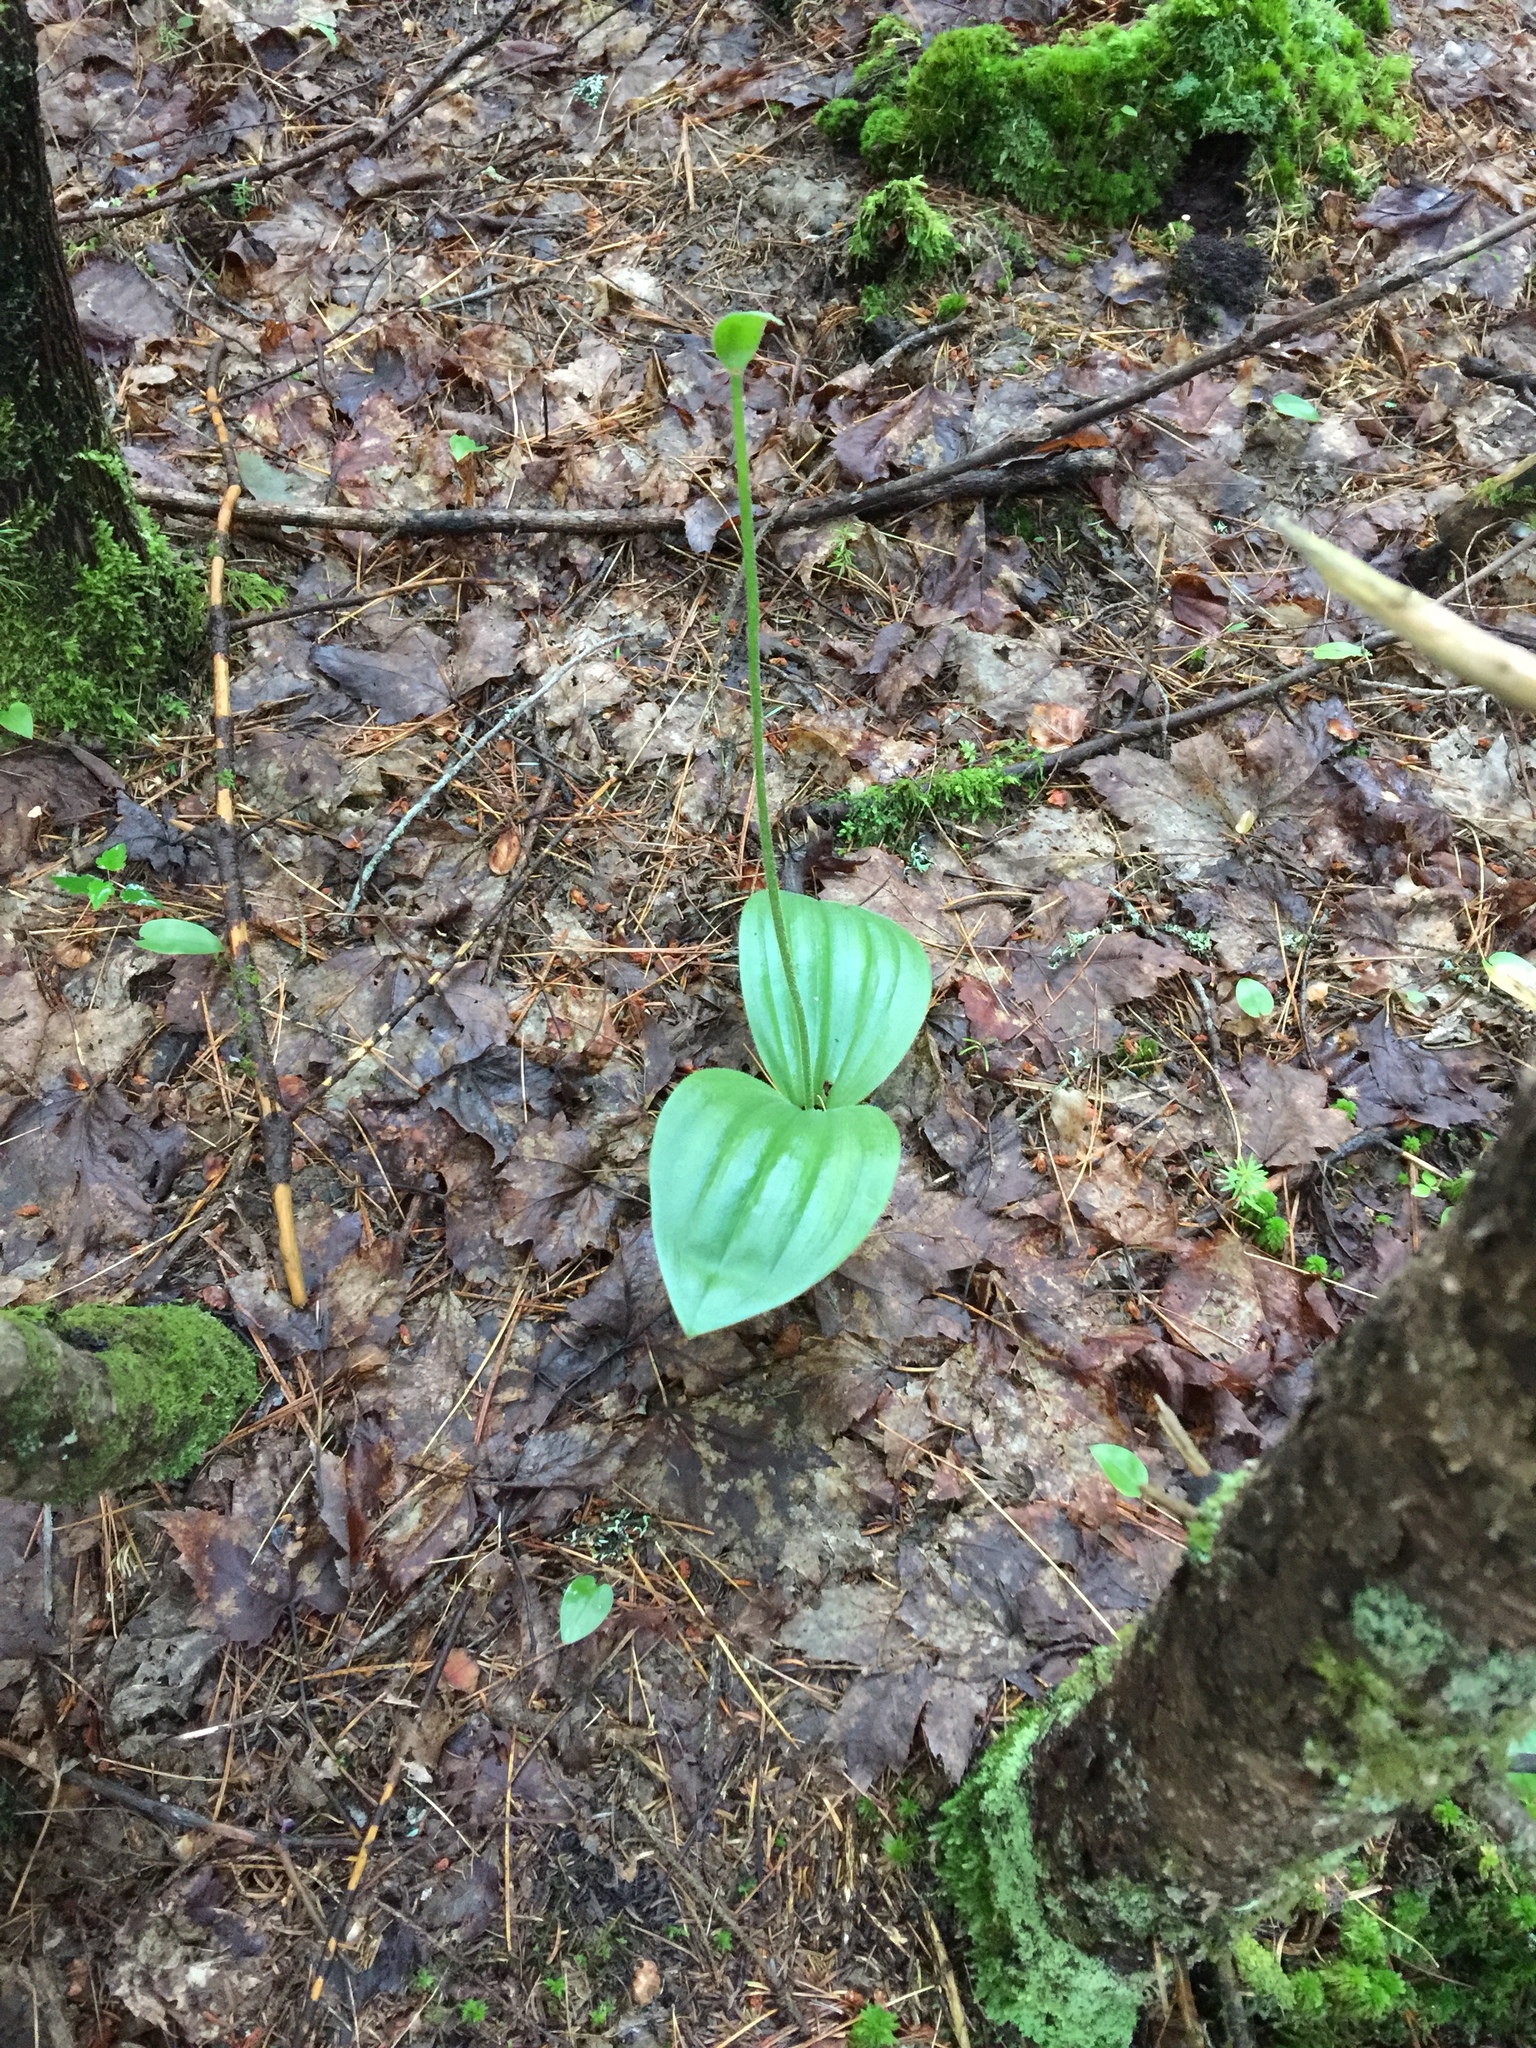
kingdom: Plantae
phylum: Tracheophyta
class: Liliopsida
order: Asparagales
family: Orchidaceae
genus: Cypripedium
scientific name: Cypripedium acaule
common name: Pink lady's-slipper
